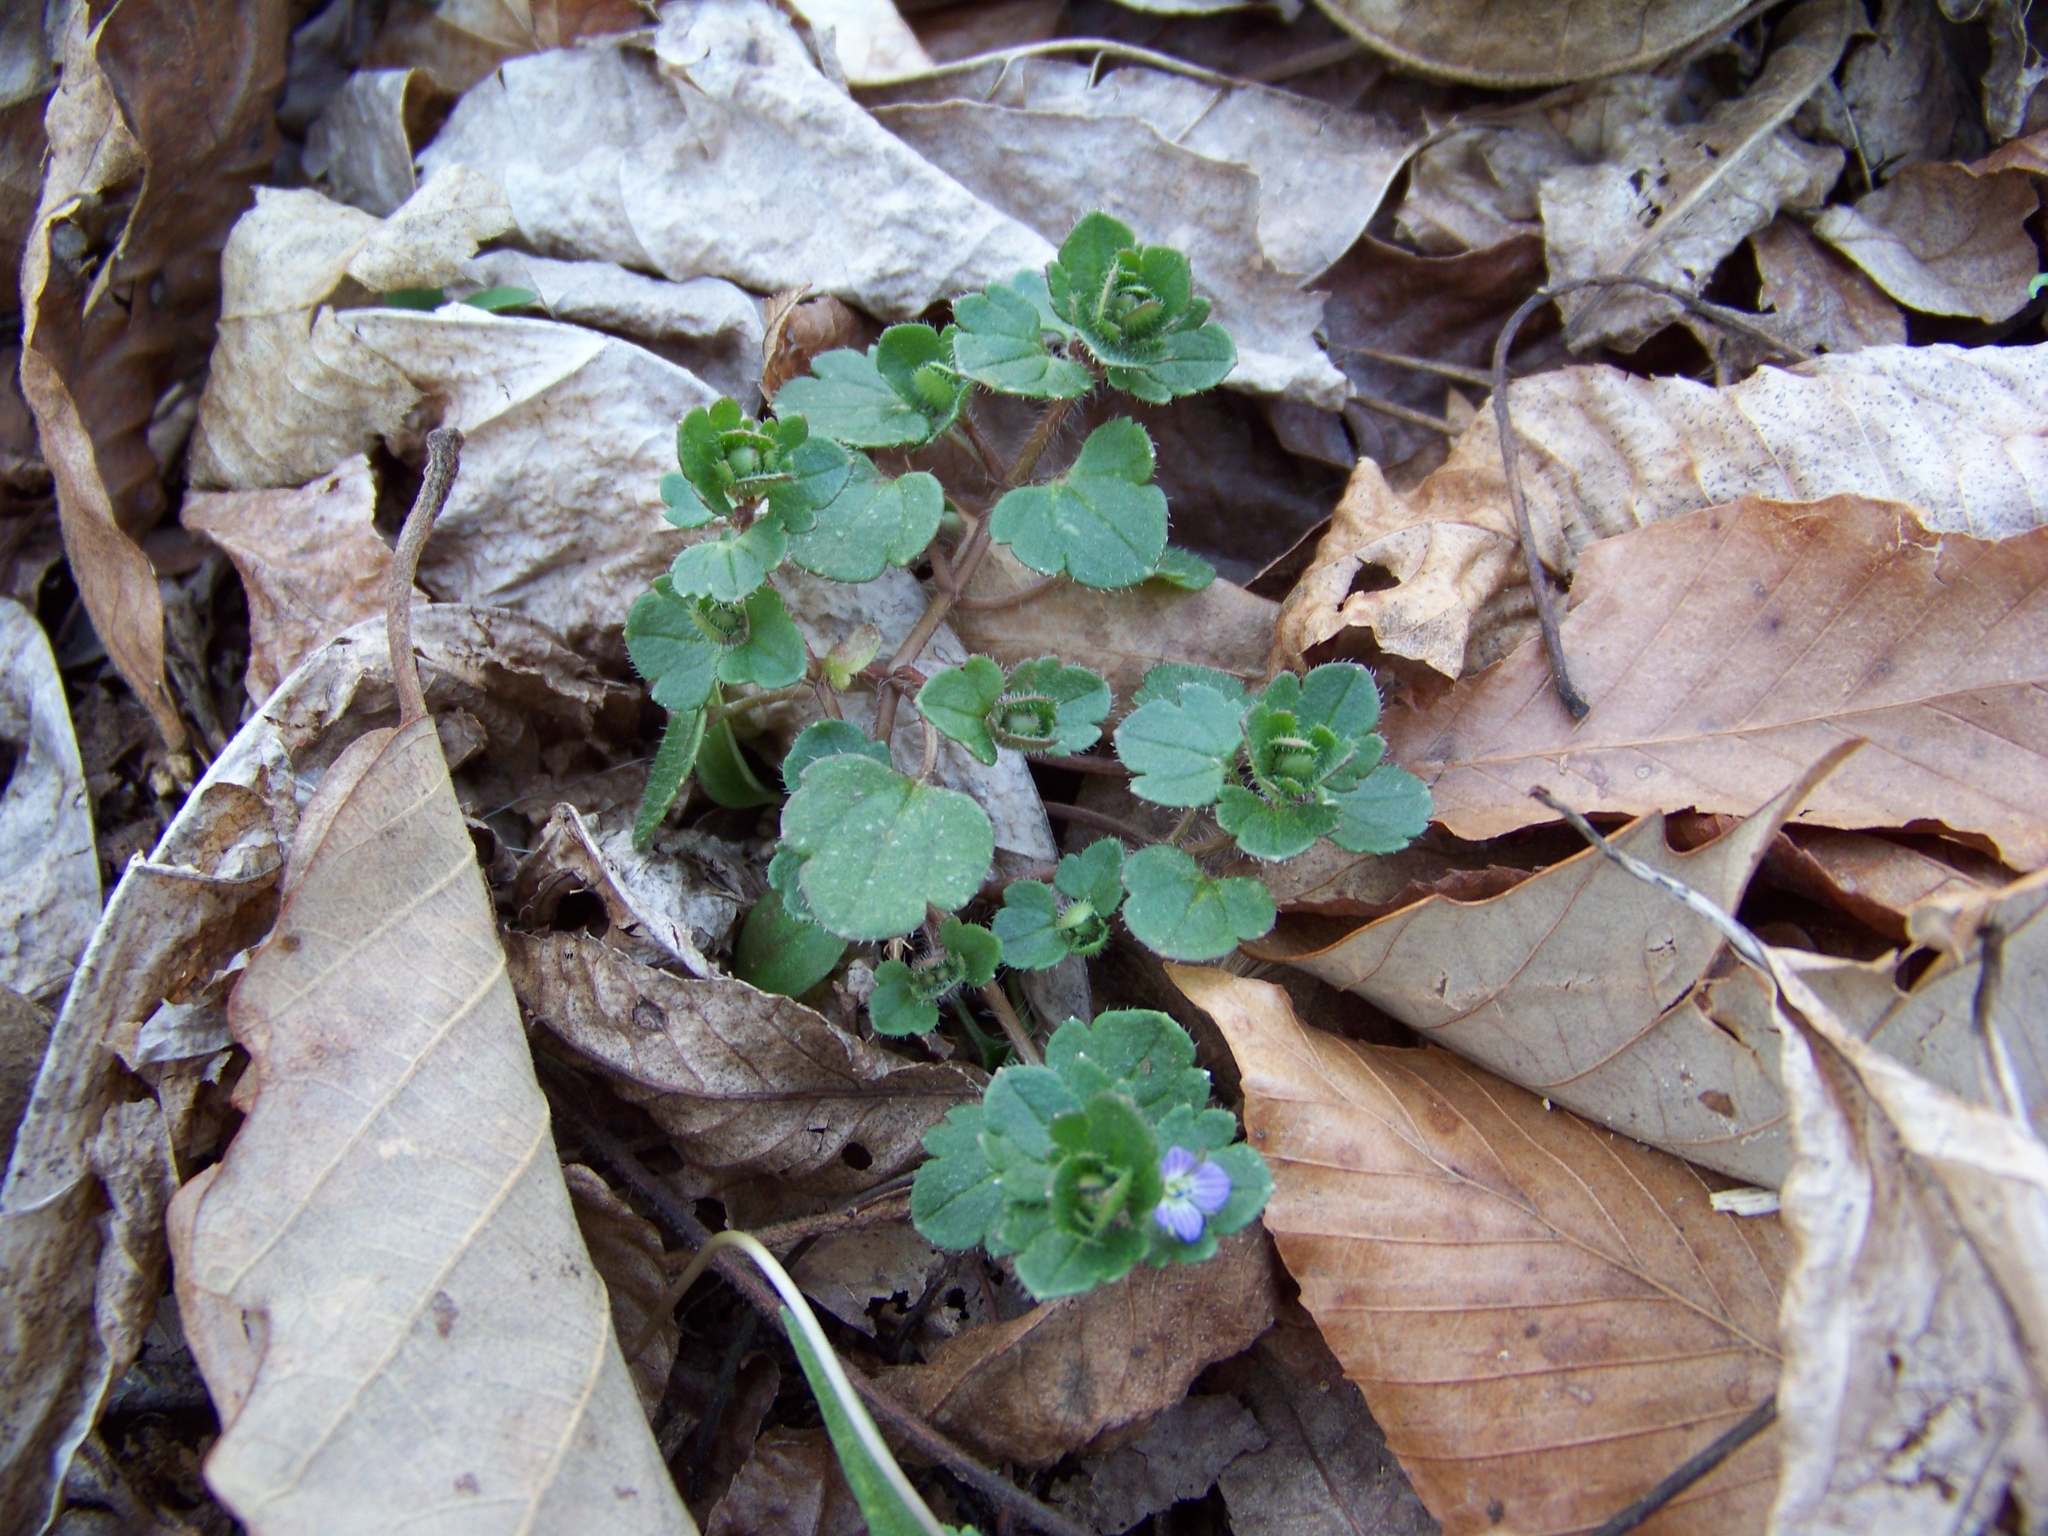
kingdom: Plantae
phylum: Tracheophyta
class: Magnoliopsida
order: Lamiales
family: Plantaginaceae
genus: Veronica
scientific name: Veronica hederifolia
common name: Ivy-leaved speedwell
